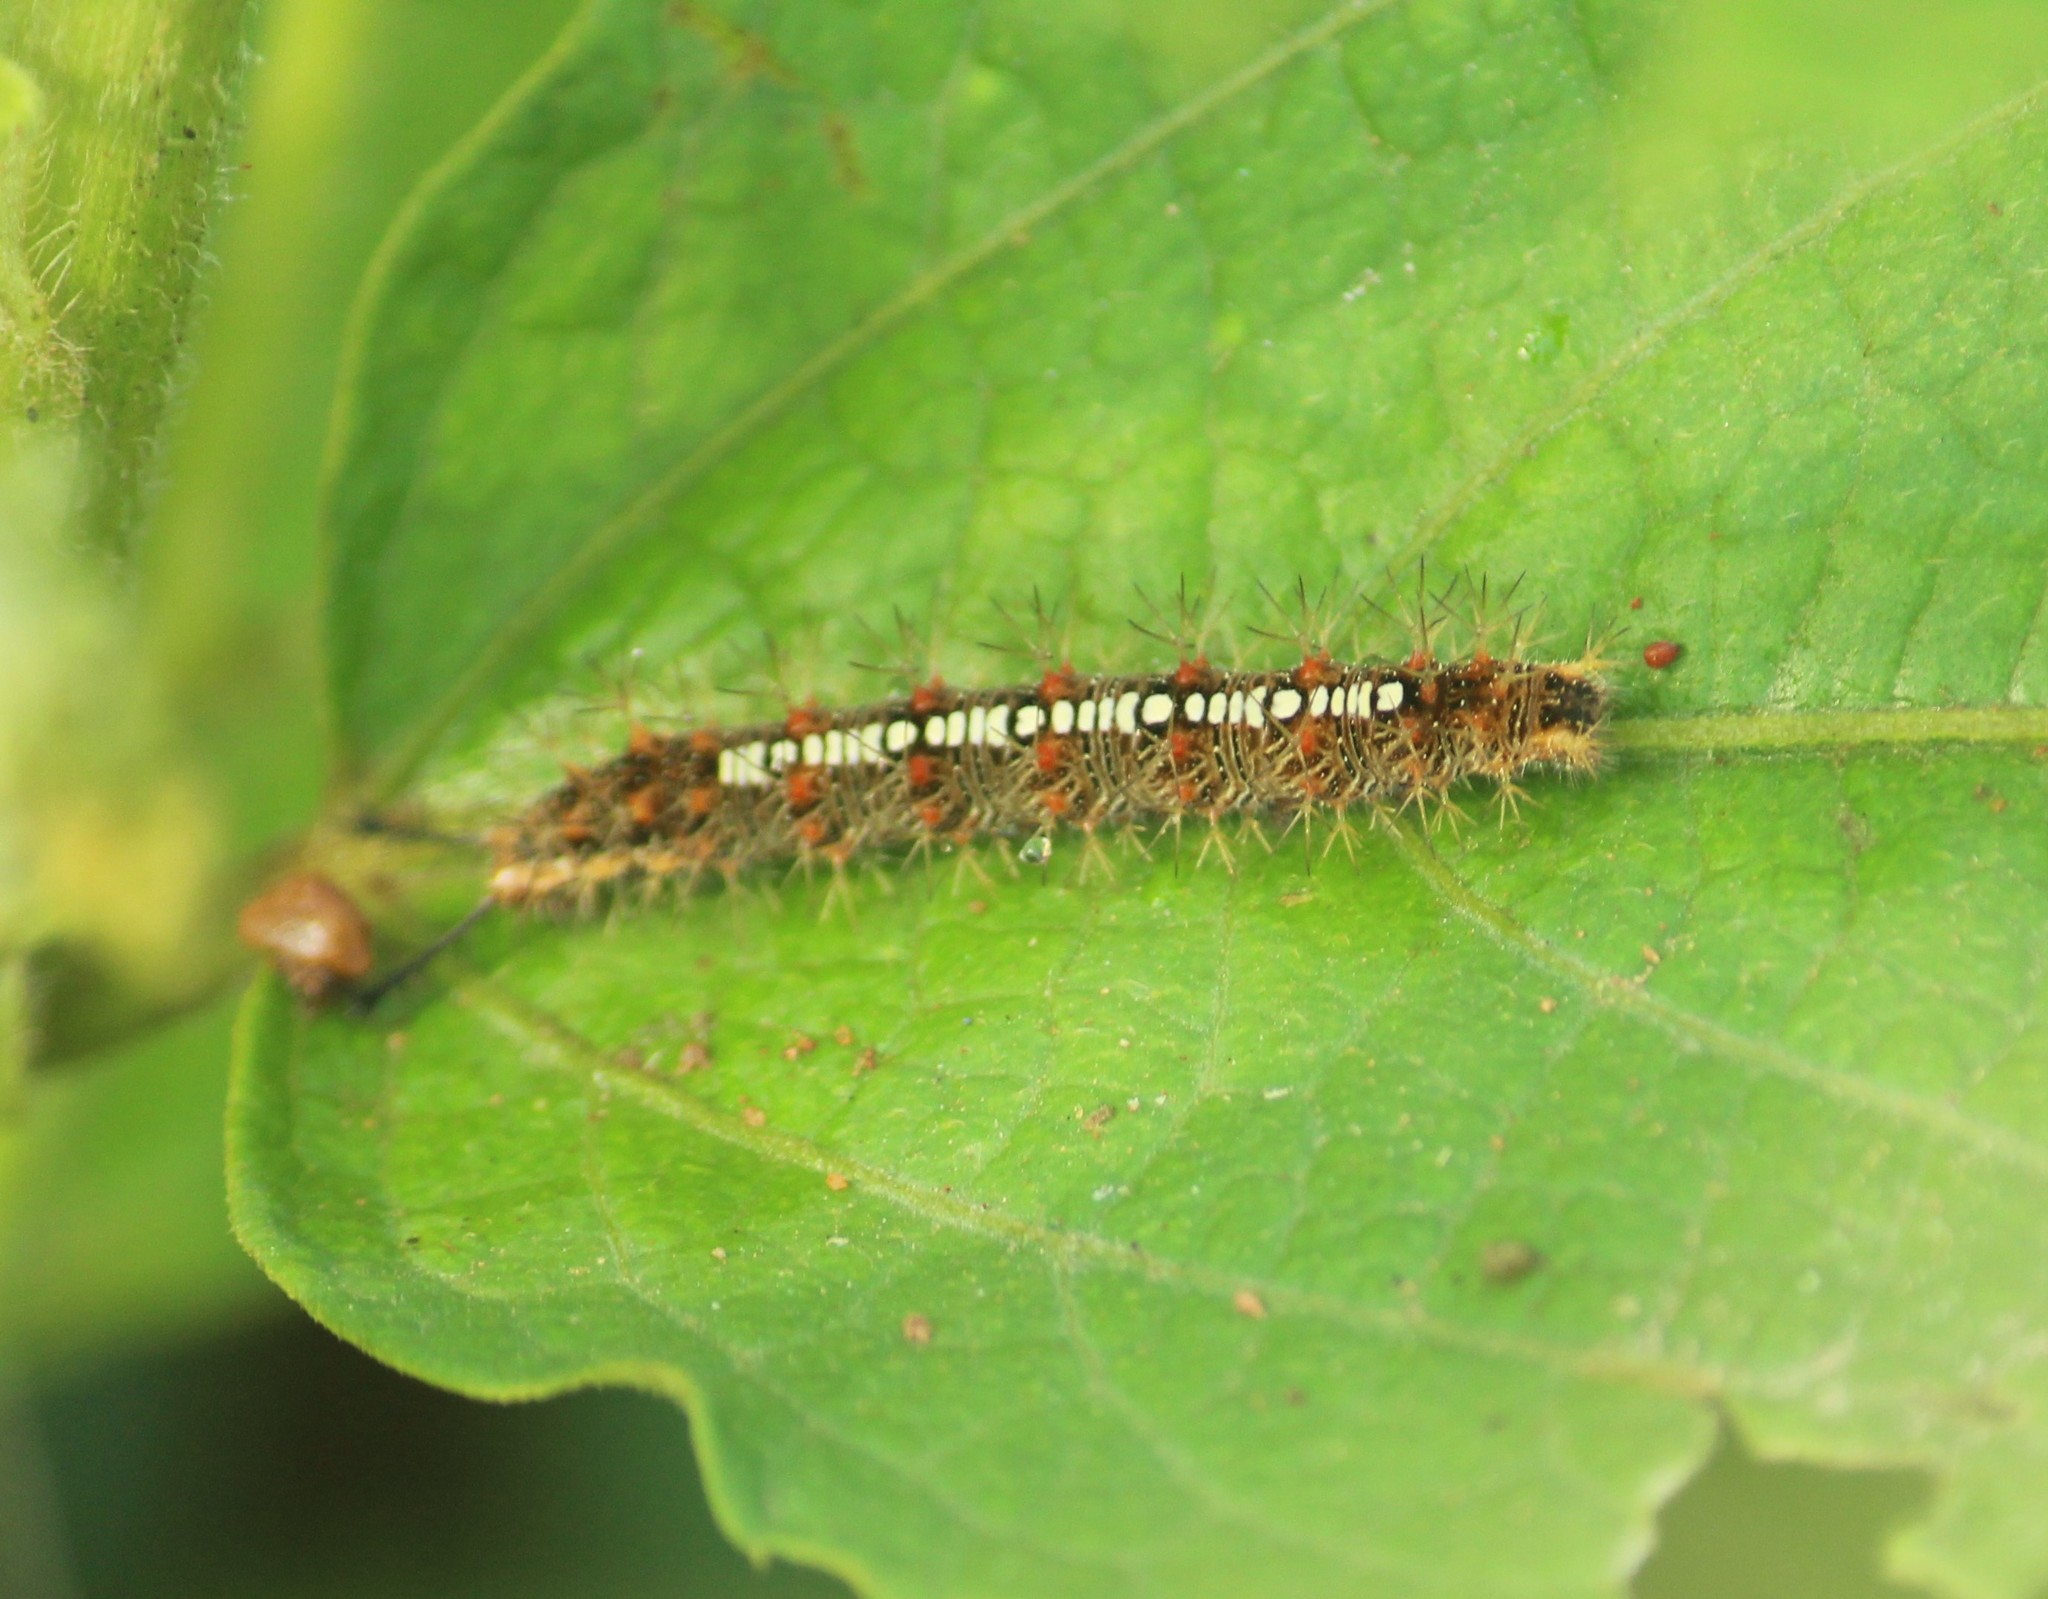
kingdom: Animalia
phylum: Arthropoda
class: Insecta
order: Lepidoptera
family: Nymphalidae
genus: Ariadne
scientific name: Ariadne ariadne
